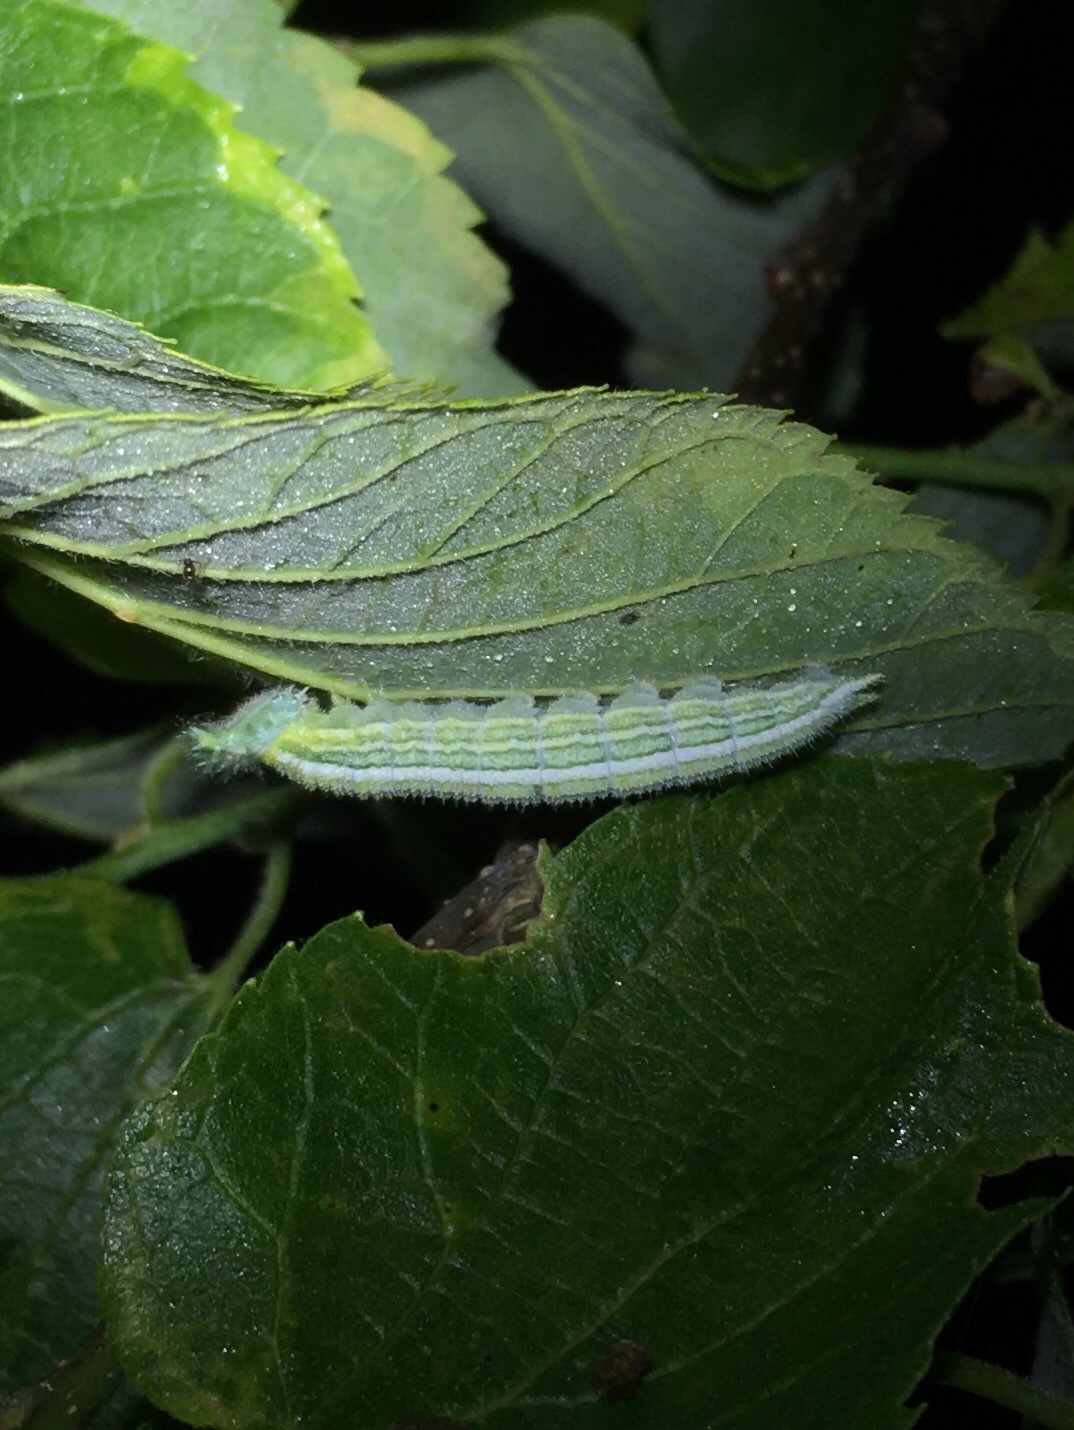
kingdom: Animalia
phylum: Arthropoda
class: Insecta
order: Lepidoptera
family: Nymphalidae
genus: Asterocampa
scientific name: Asterocampa clyton
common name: Tawny emperor
